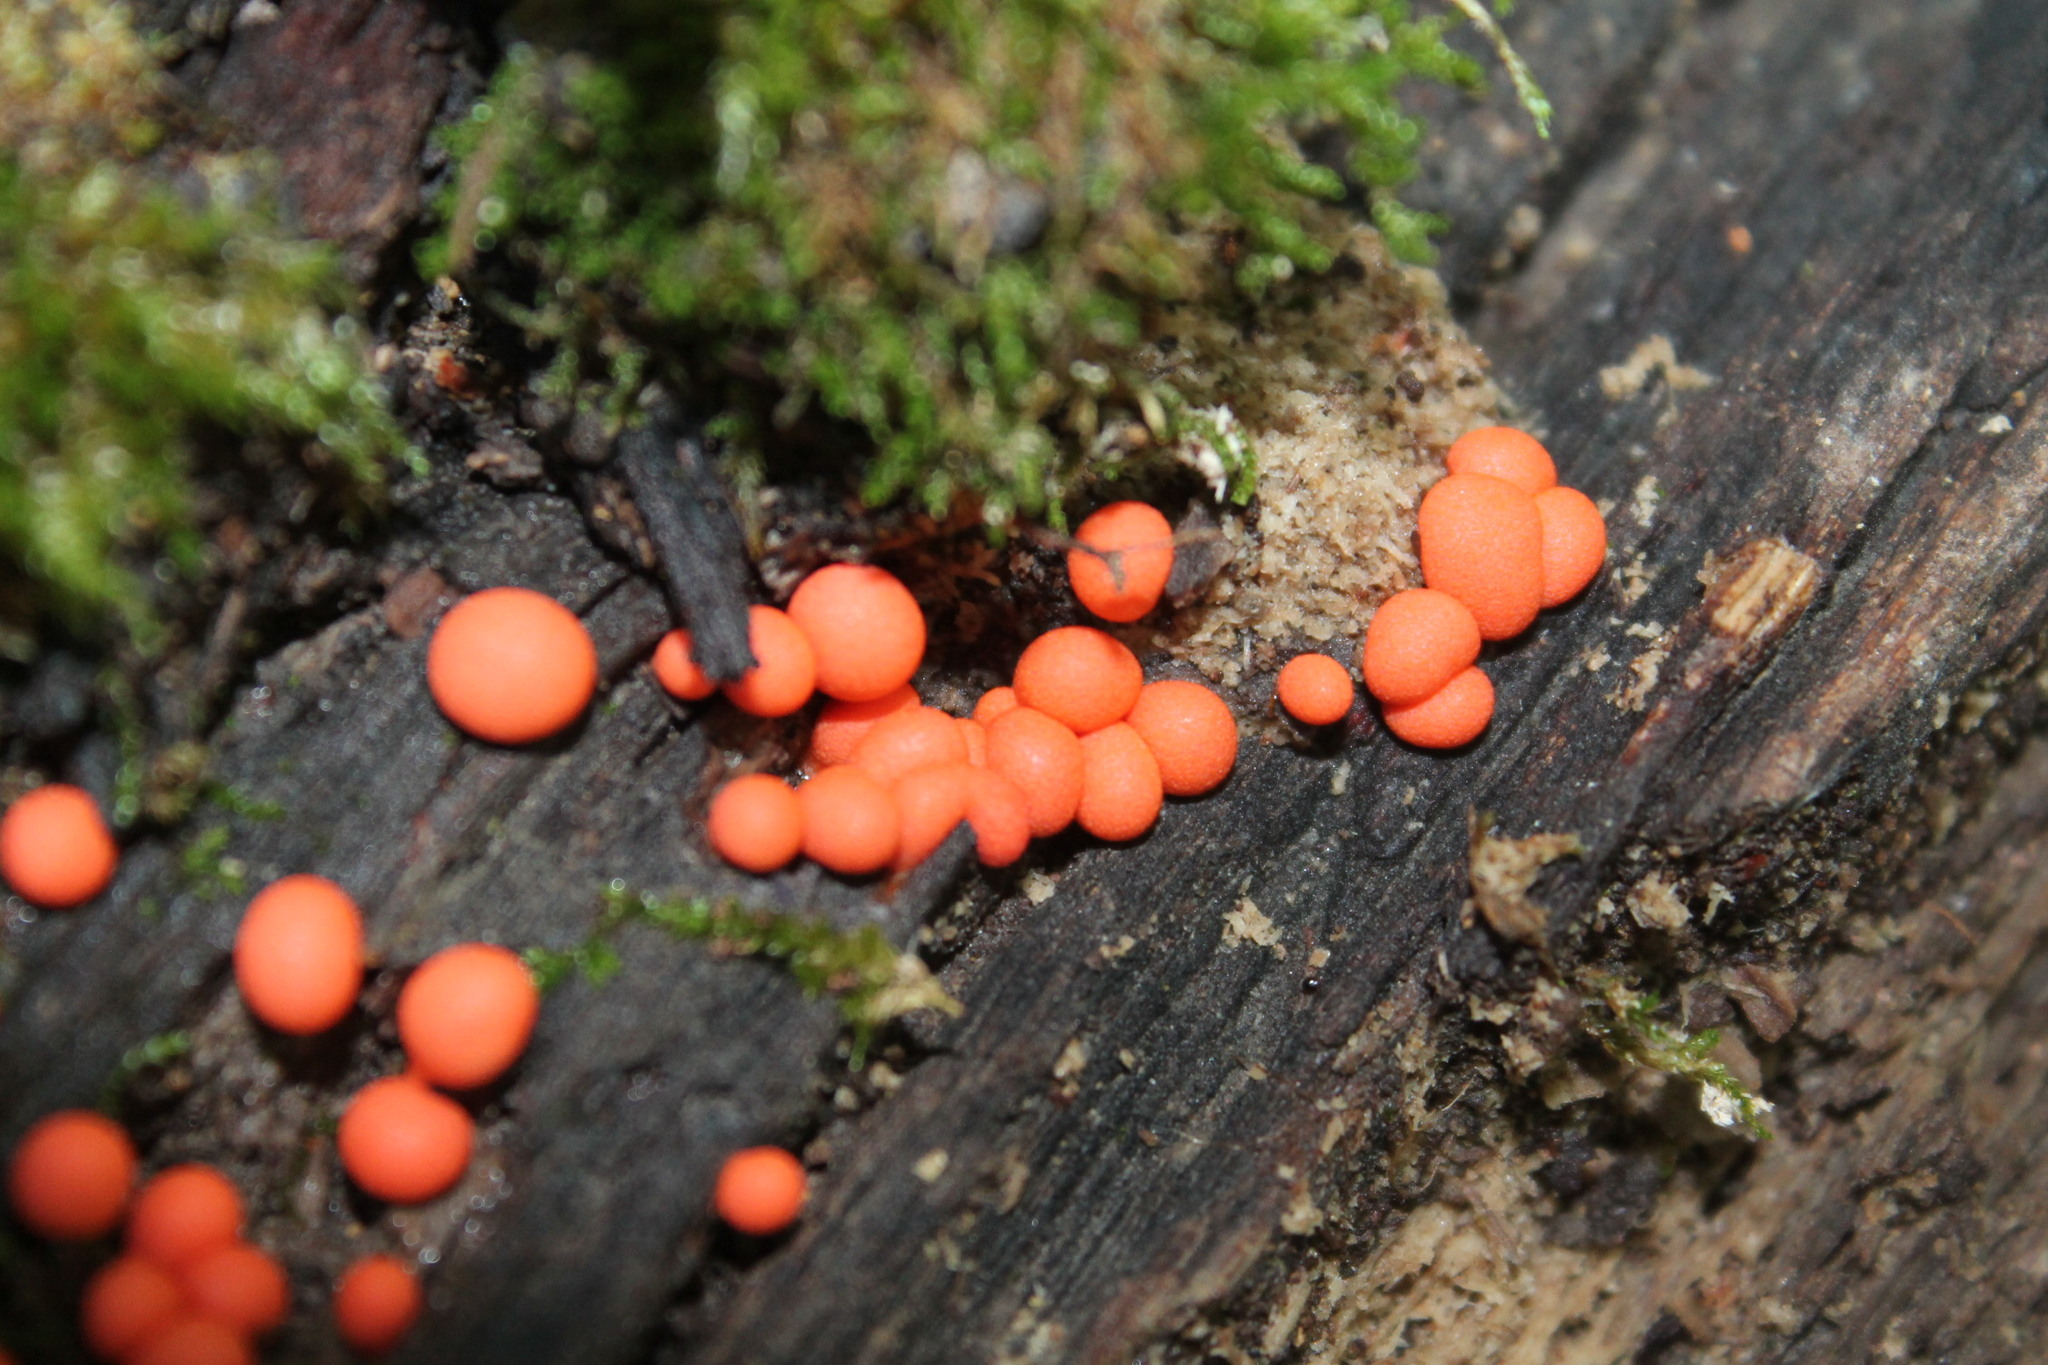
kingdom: Protozoa
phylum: Mycetozoa
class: Myxomycetes
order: Cribrariales
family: Tubiferaceae
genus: Lycogala
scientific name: Lycogala epidendrum
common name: Wolf's milk
